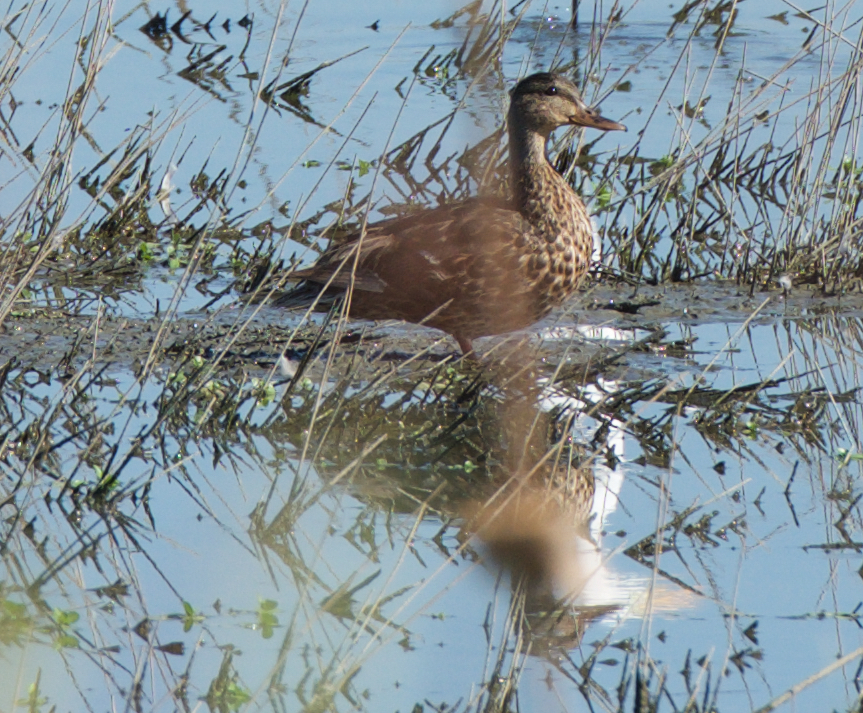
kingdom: Animalia
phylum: Chordata
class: Aves
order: Anseriformes
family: Anatidae
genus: Anas
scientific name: Anas platyrhynchos
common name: Mallard
